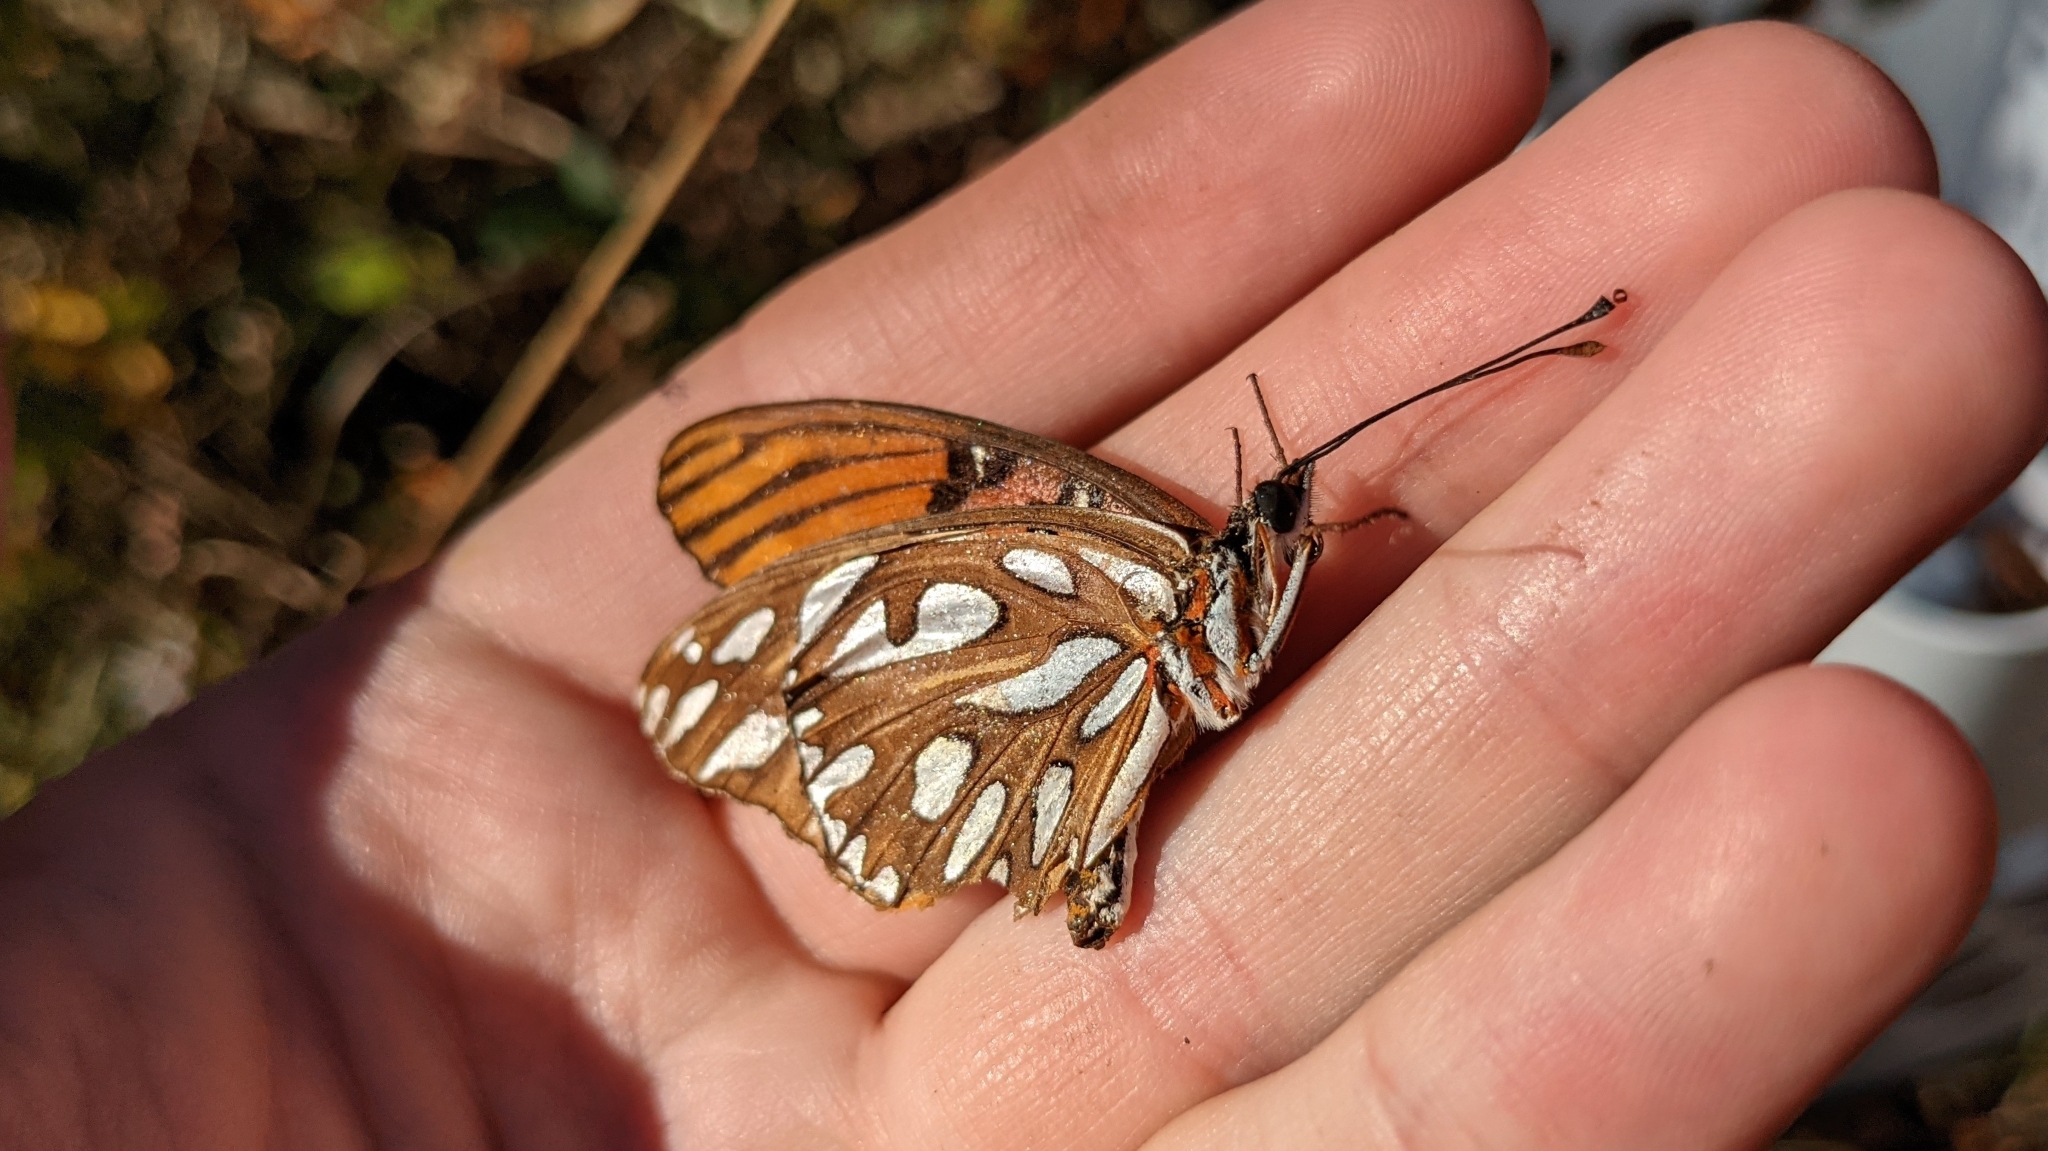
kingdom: Animalia
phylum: Arthropoda
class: Insecta
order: Lepidoptera
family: Nymphalidae
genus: Dione
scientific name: Dione vanillae
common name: Gulf fritillary
